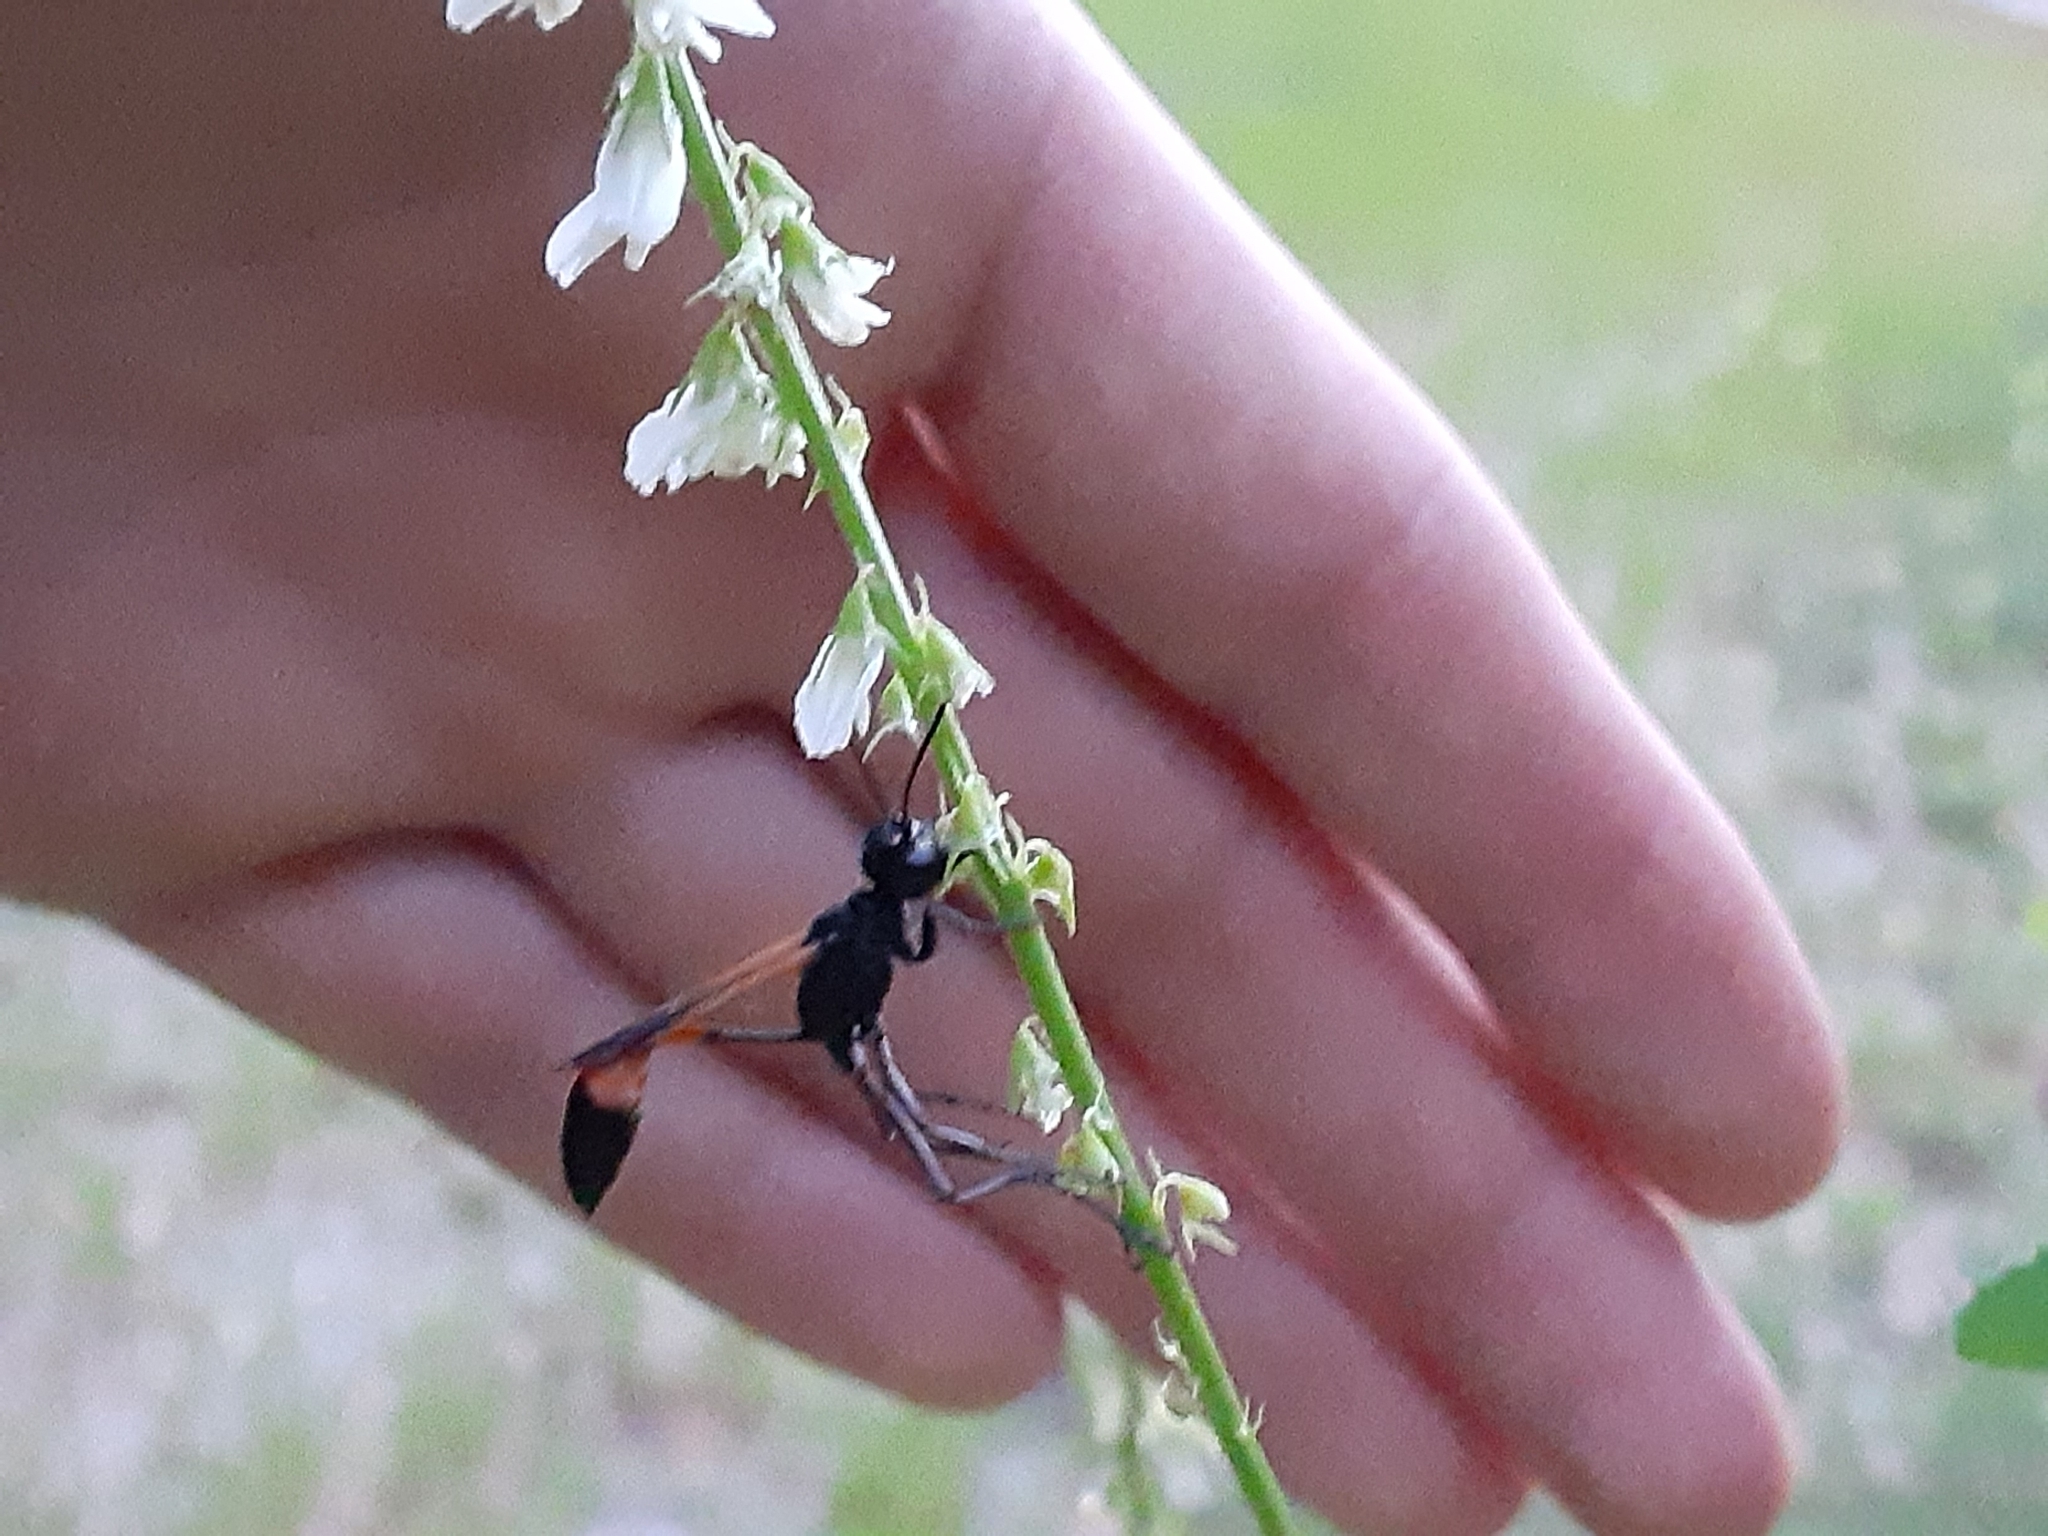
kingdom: Animalia
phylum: Arthropoda
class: Insecta
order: Hymenoptera
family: Sphecidae
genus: Ammophila
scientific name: Ammophila pictipennis
